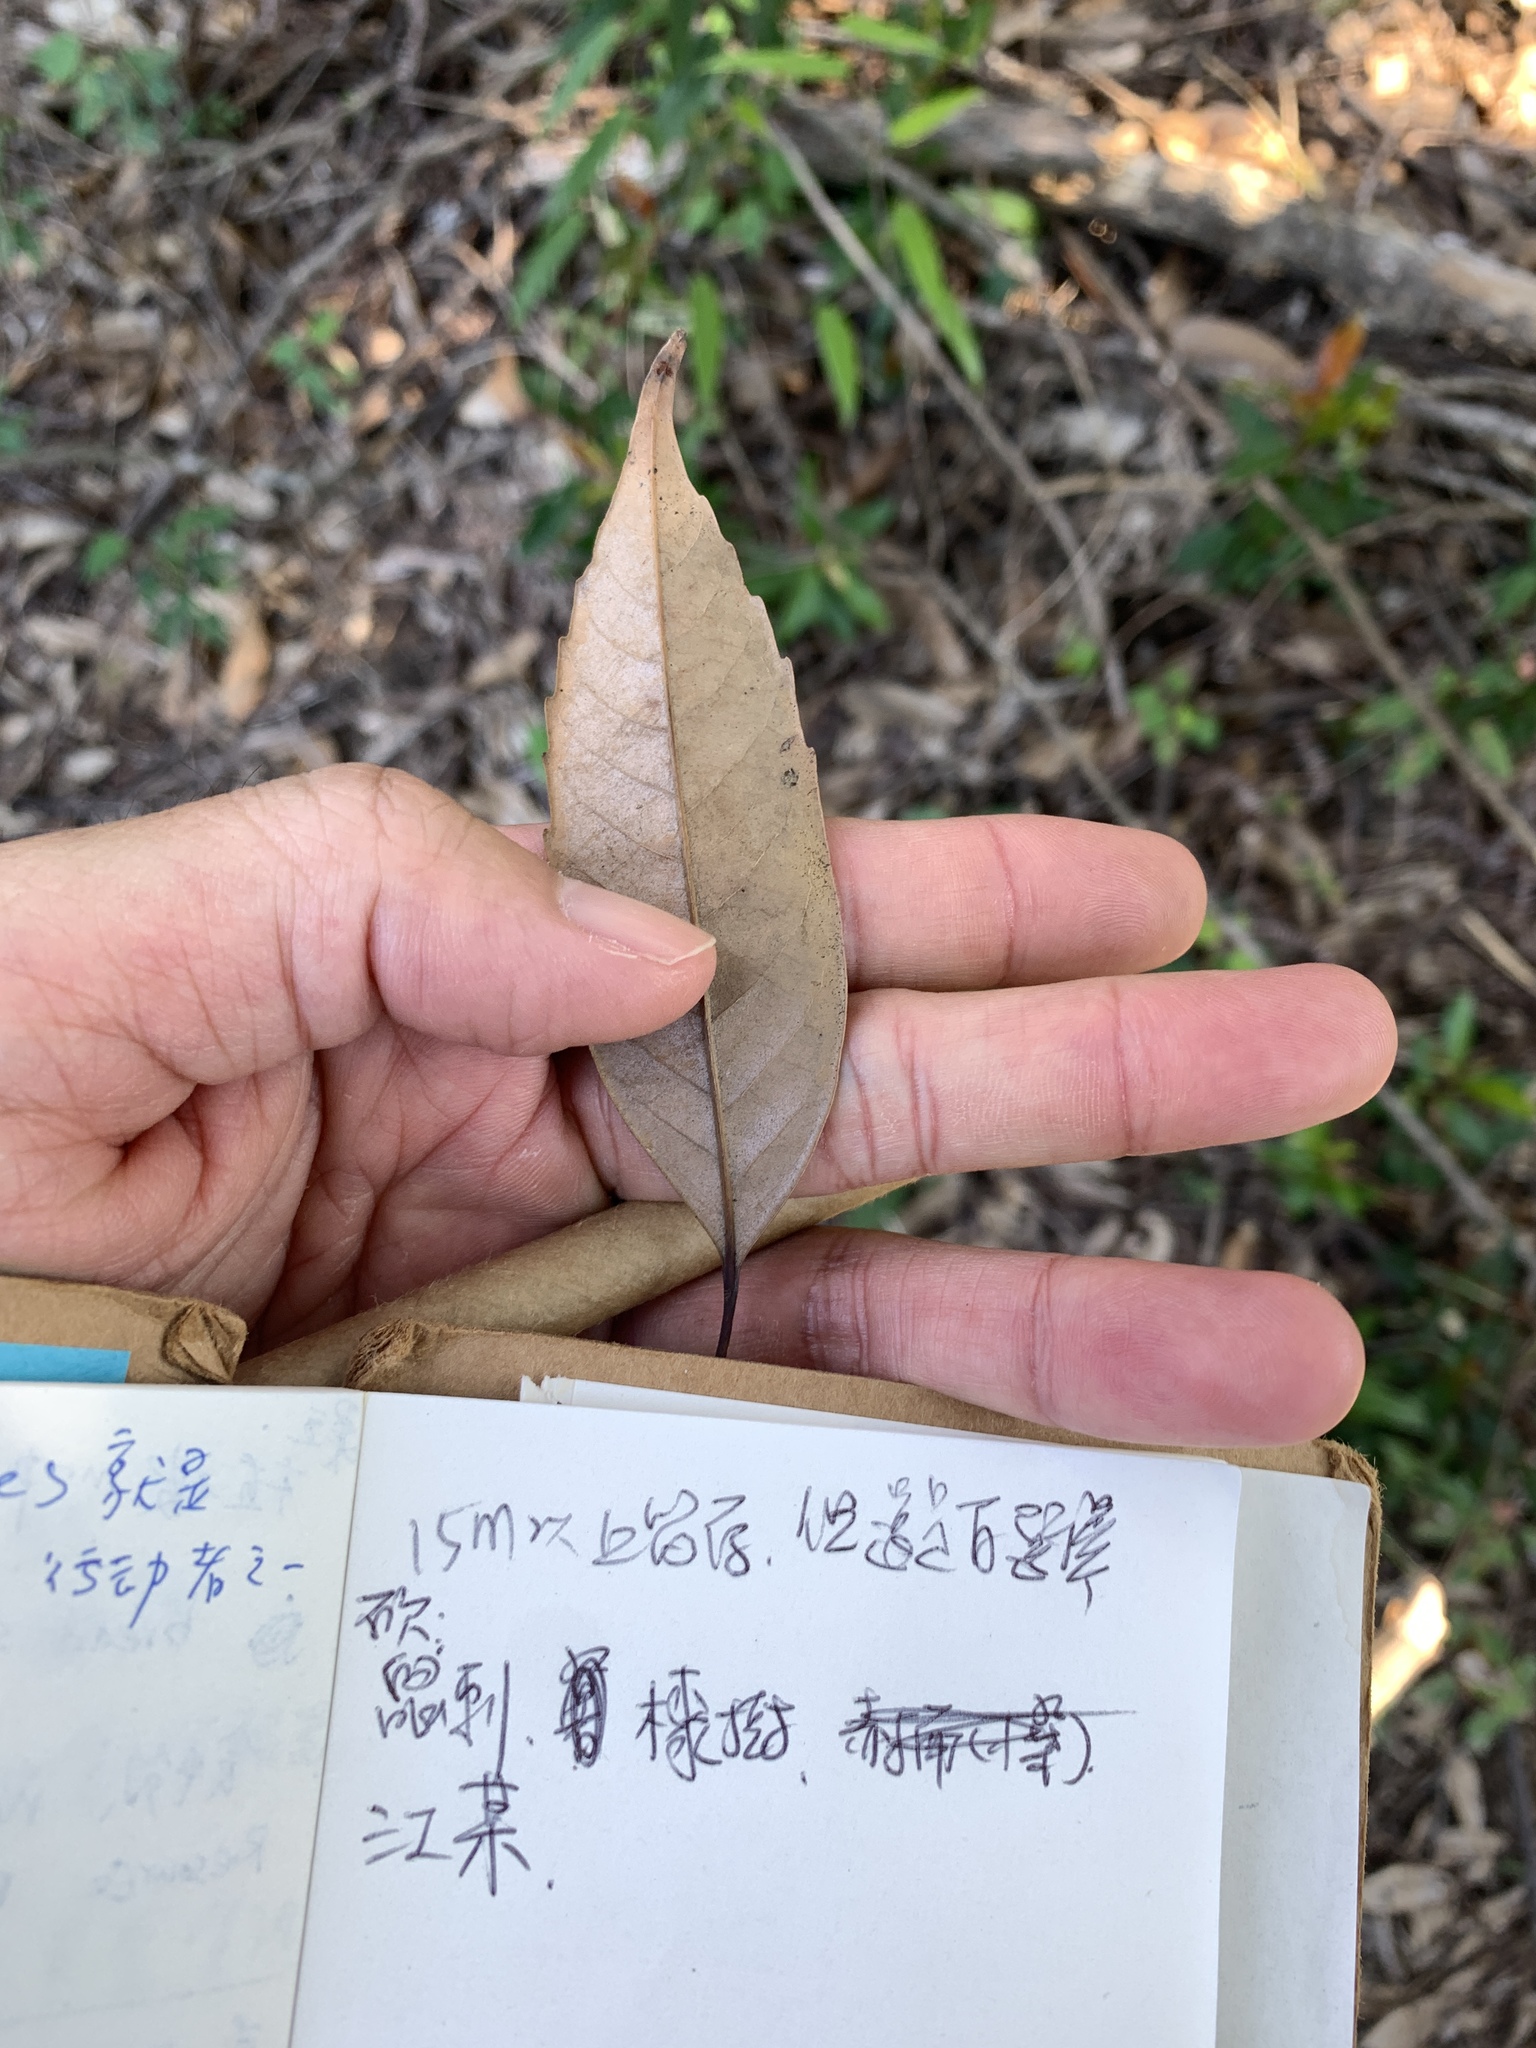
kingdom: Plantae
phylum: Tracheophyta
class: Magnoliopsida
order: Fagales
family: Fagaceae
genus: Lithocarpus
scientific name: Lithocarpus uraianus
